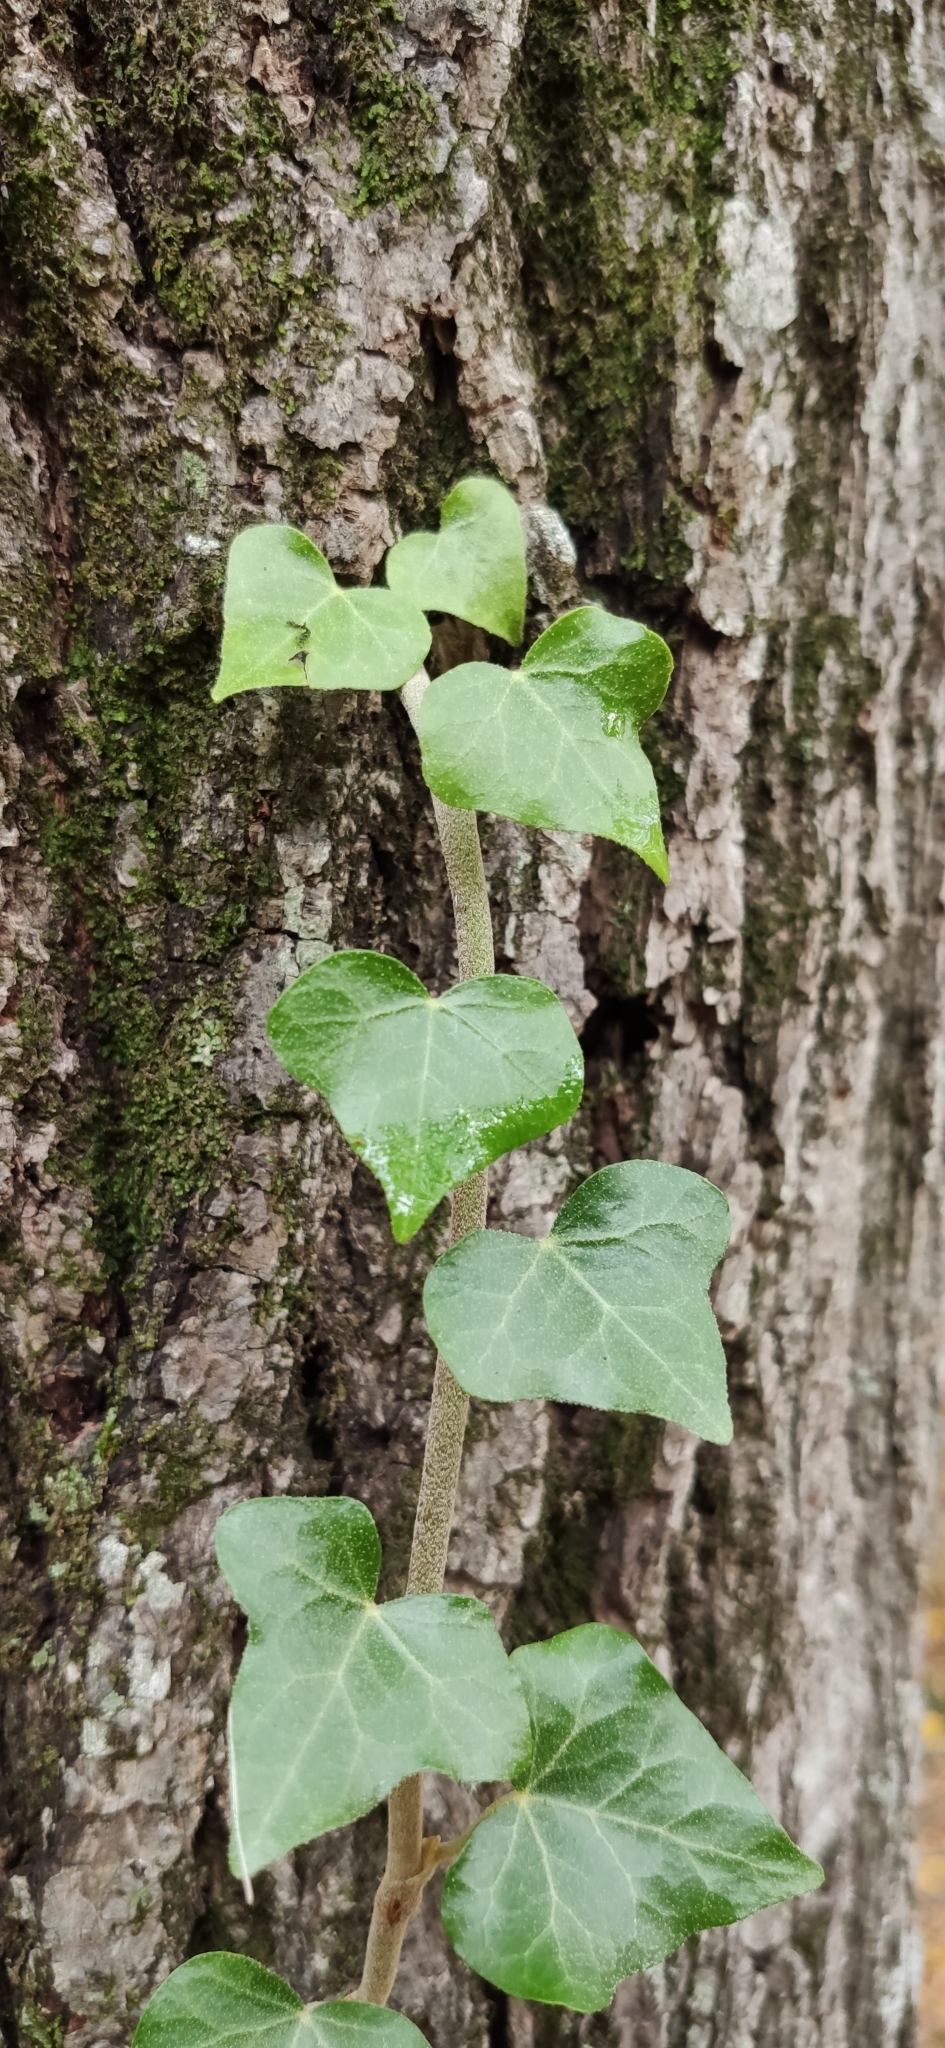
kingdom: Plantae
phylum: Tracheophyta
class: Magnoliopsida
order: Apiales
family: Araliaceae
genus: Hedera
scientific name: Hedera helix
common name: Ivy
